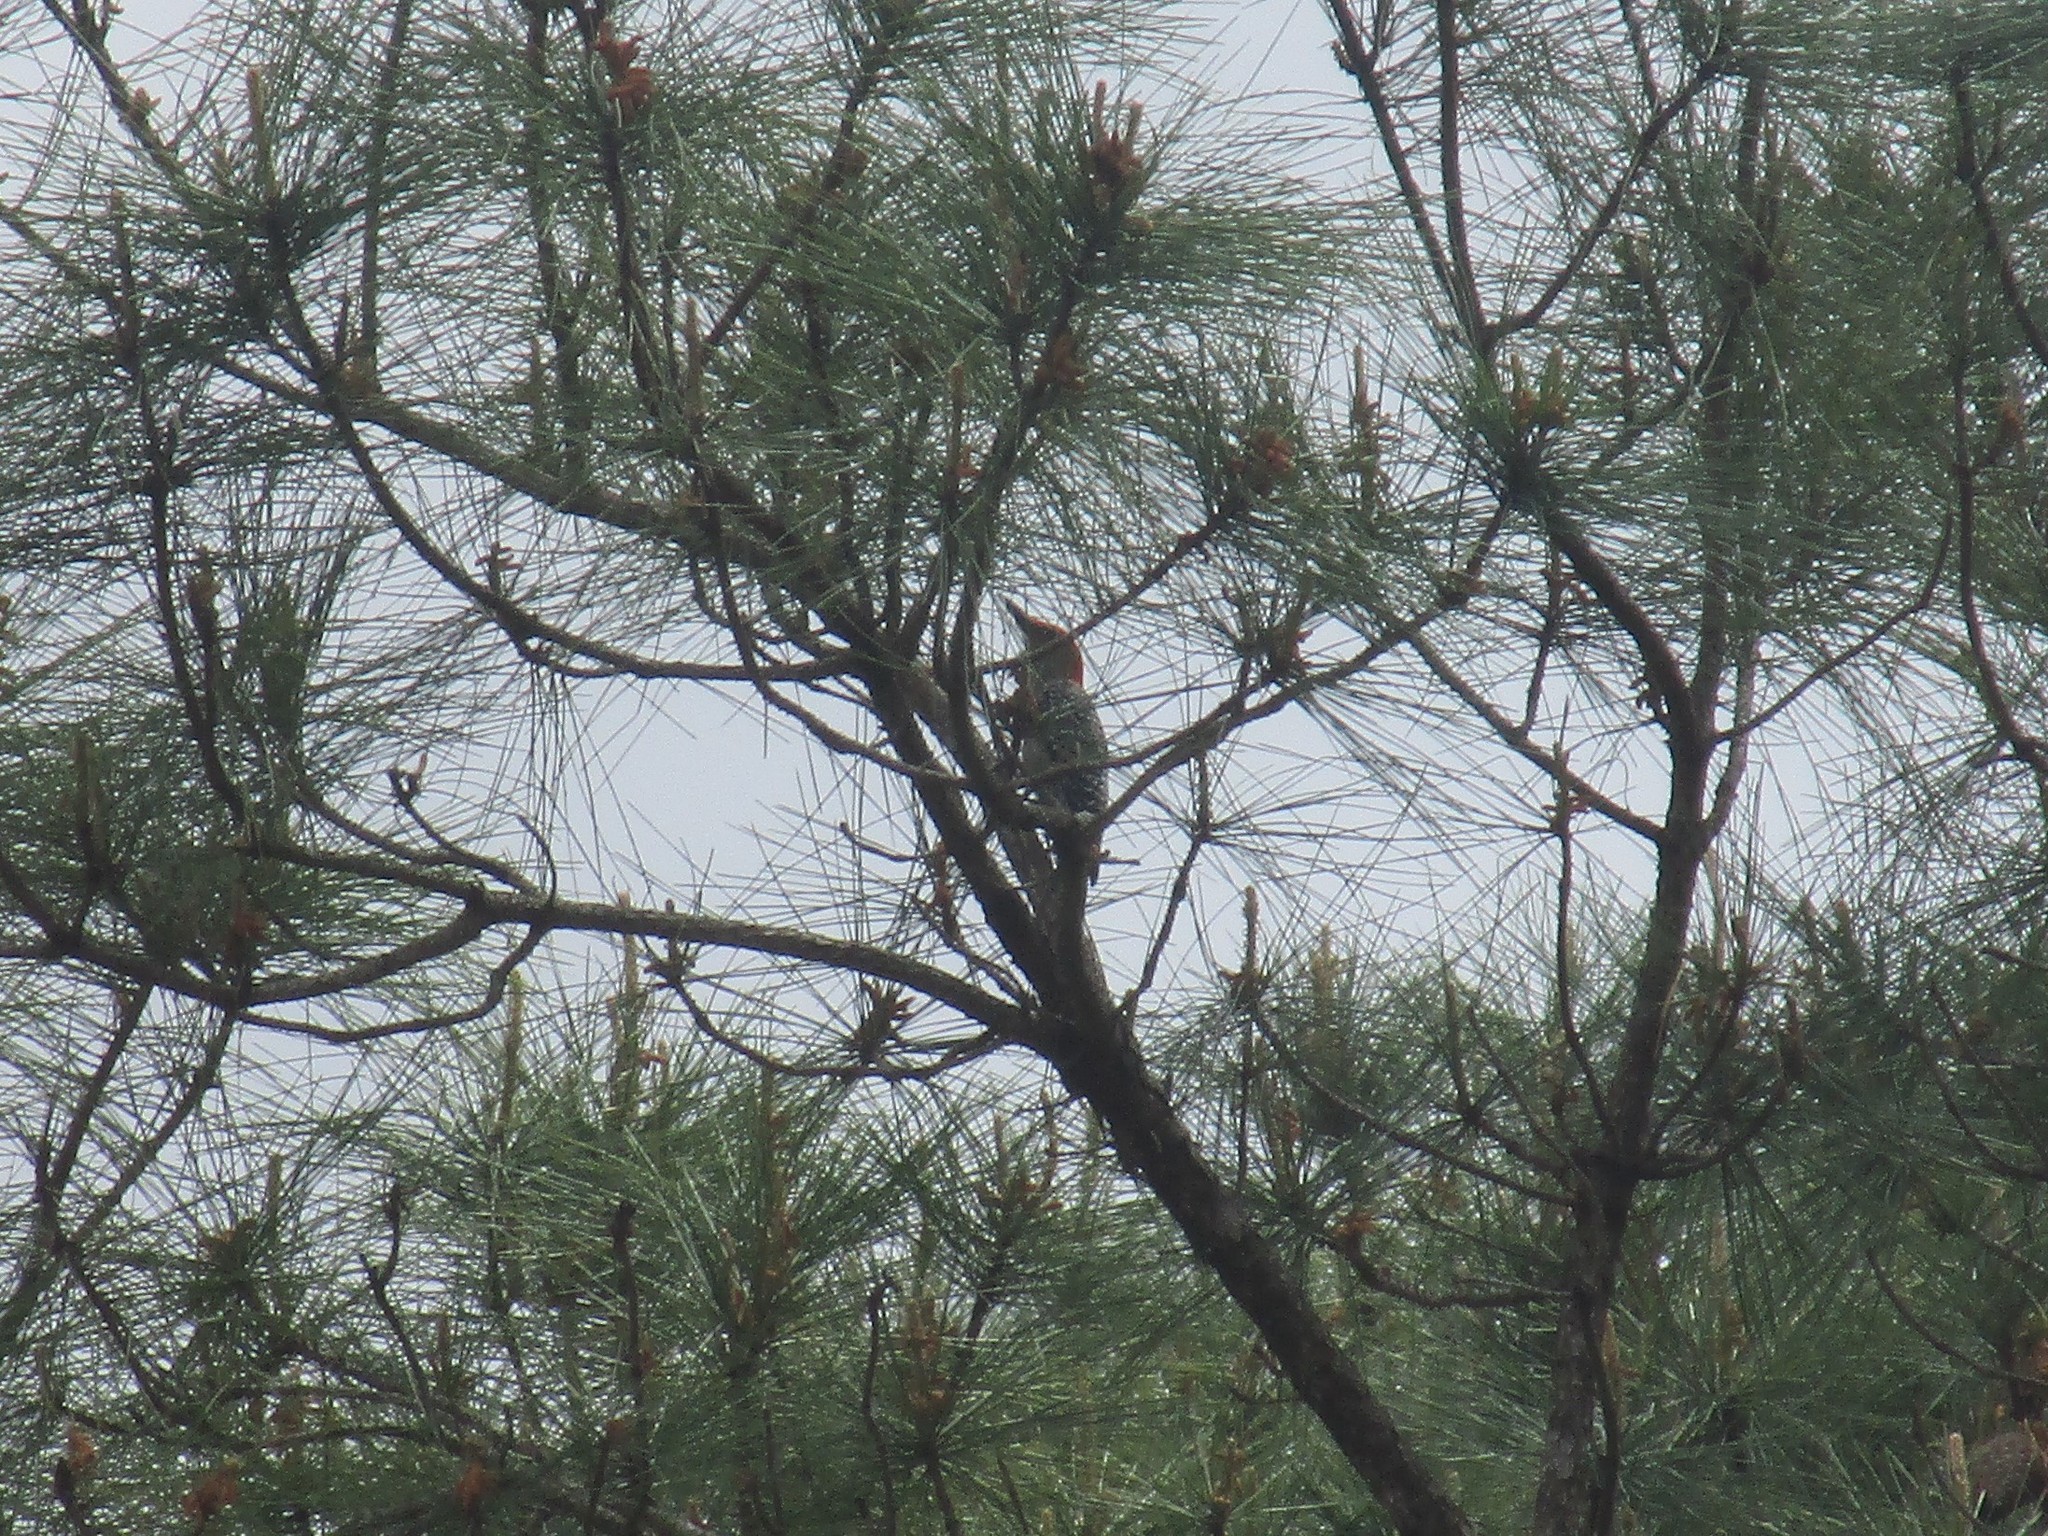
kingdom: Animalia
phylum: Chordata
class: Aves
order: Piciformes
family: Picidae
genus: Melanerpes
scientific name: Melanerpes carolinus
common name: Red-bellied woodpecker
